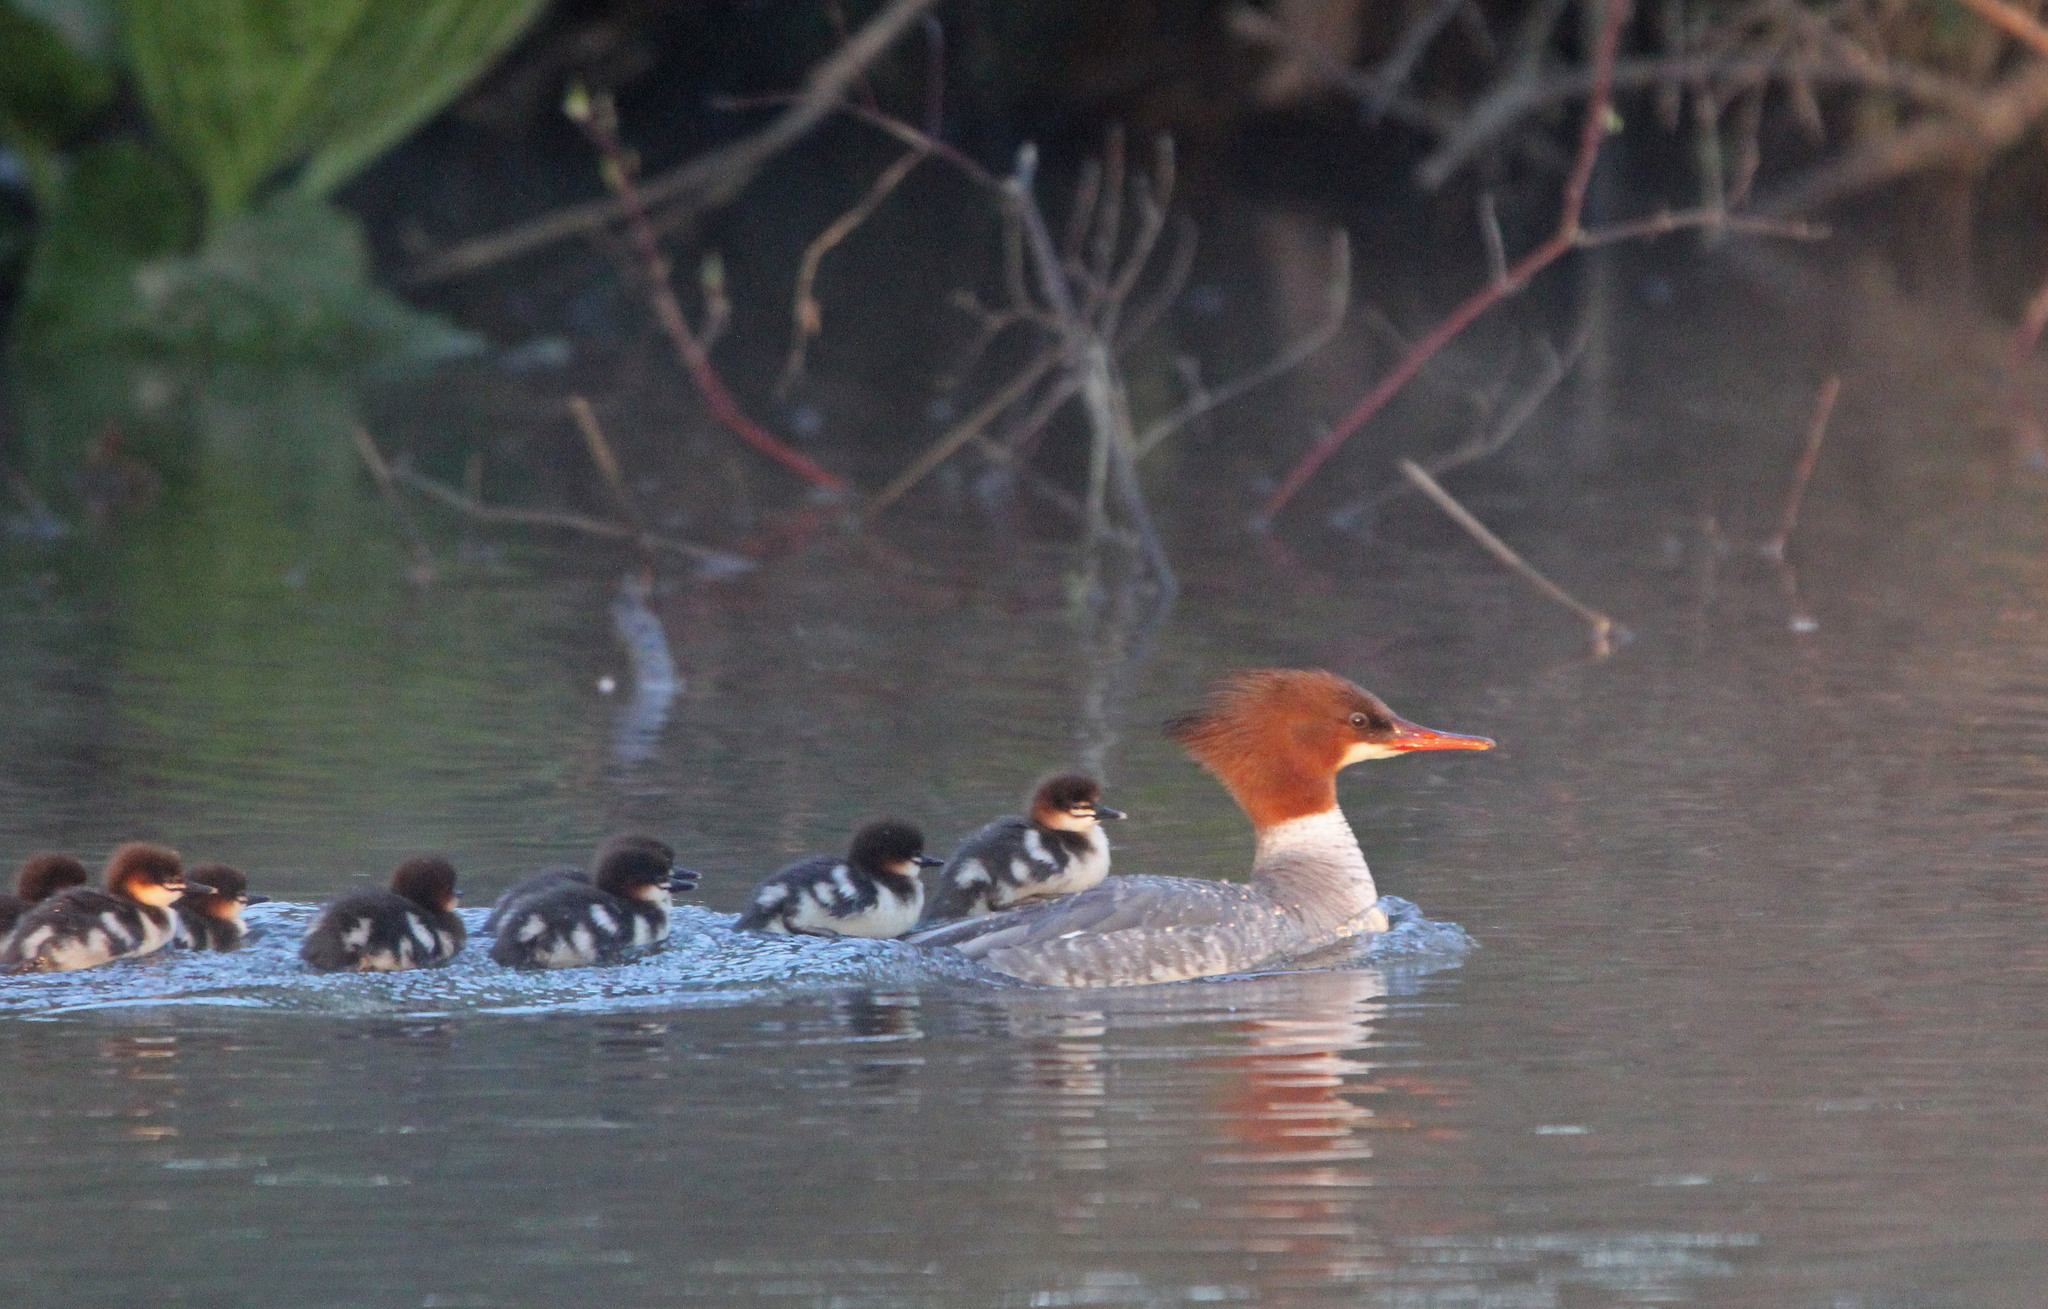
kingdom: Animalia
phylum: Chordata
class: Aves
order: Anseriformes
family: Anatidae
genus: Mergus
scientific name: Mergus merganser
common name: Common merganser
